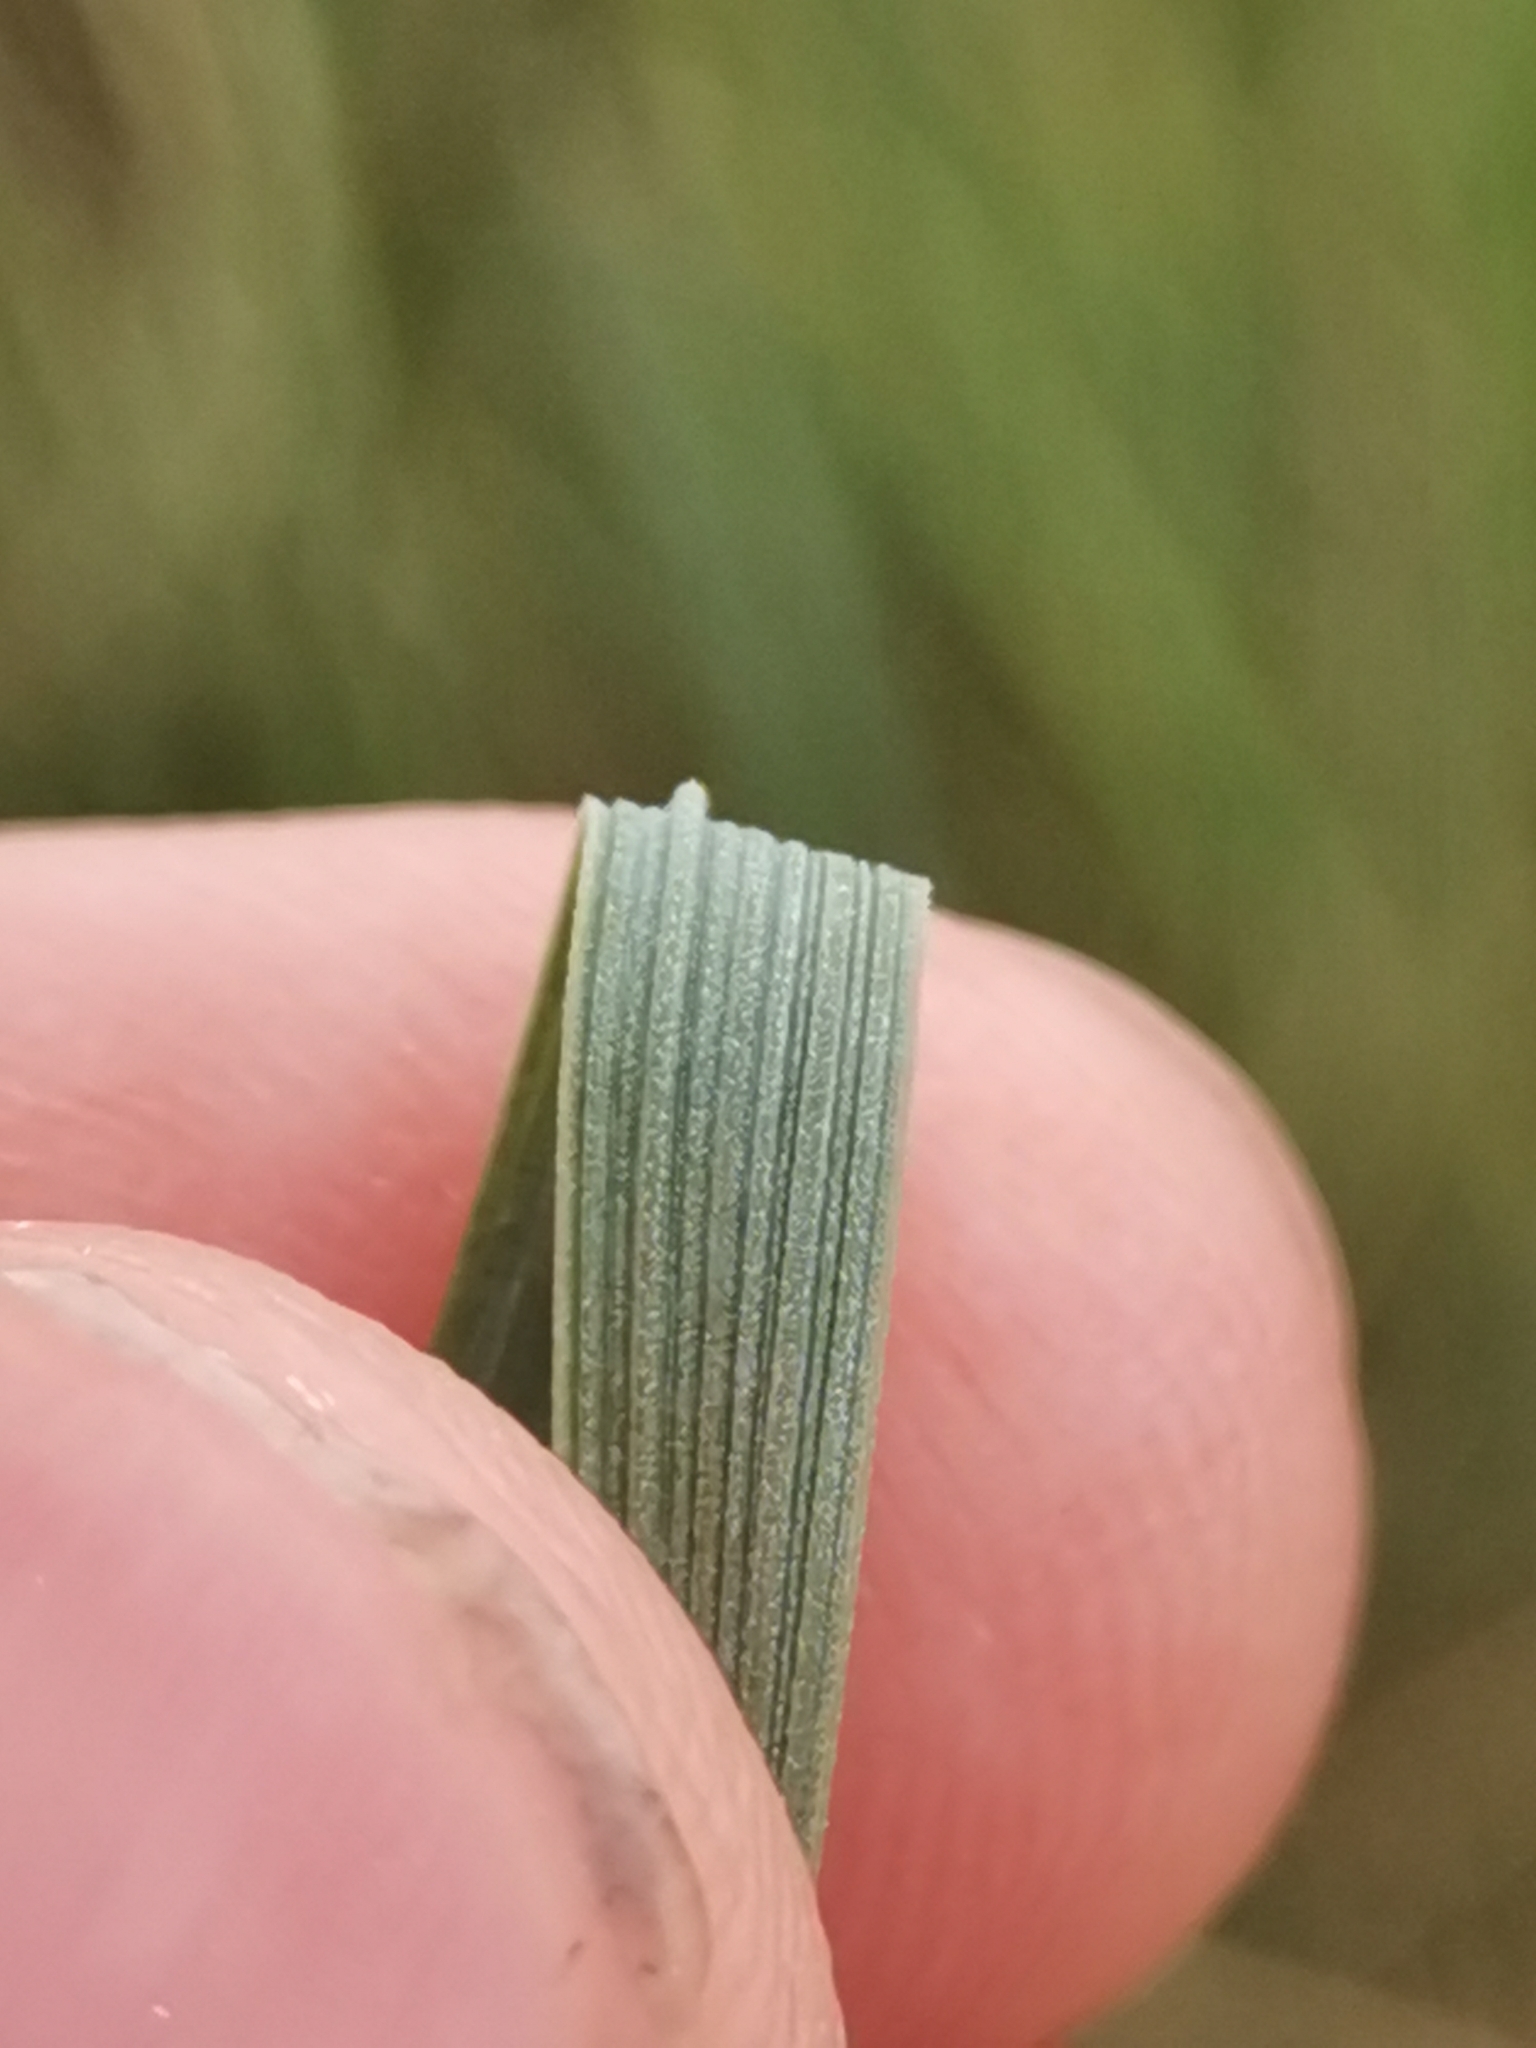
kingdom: Plantae
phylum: Tracheophyta
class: Liliopsida
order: Poales
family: Poaceae
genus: Elymus
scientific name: Elymus athericus
